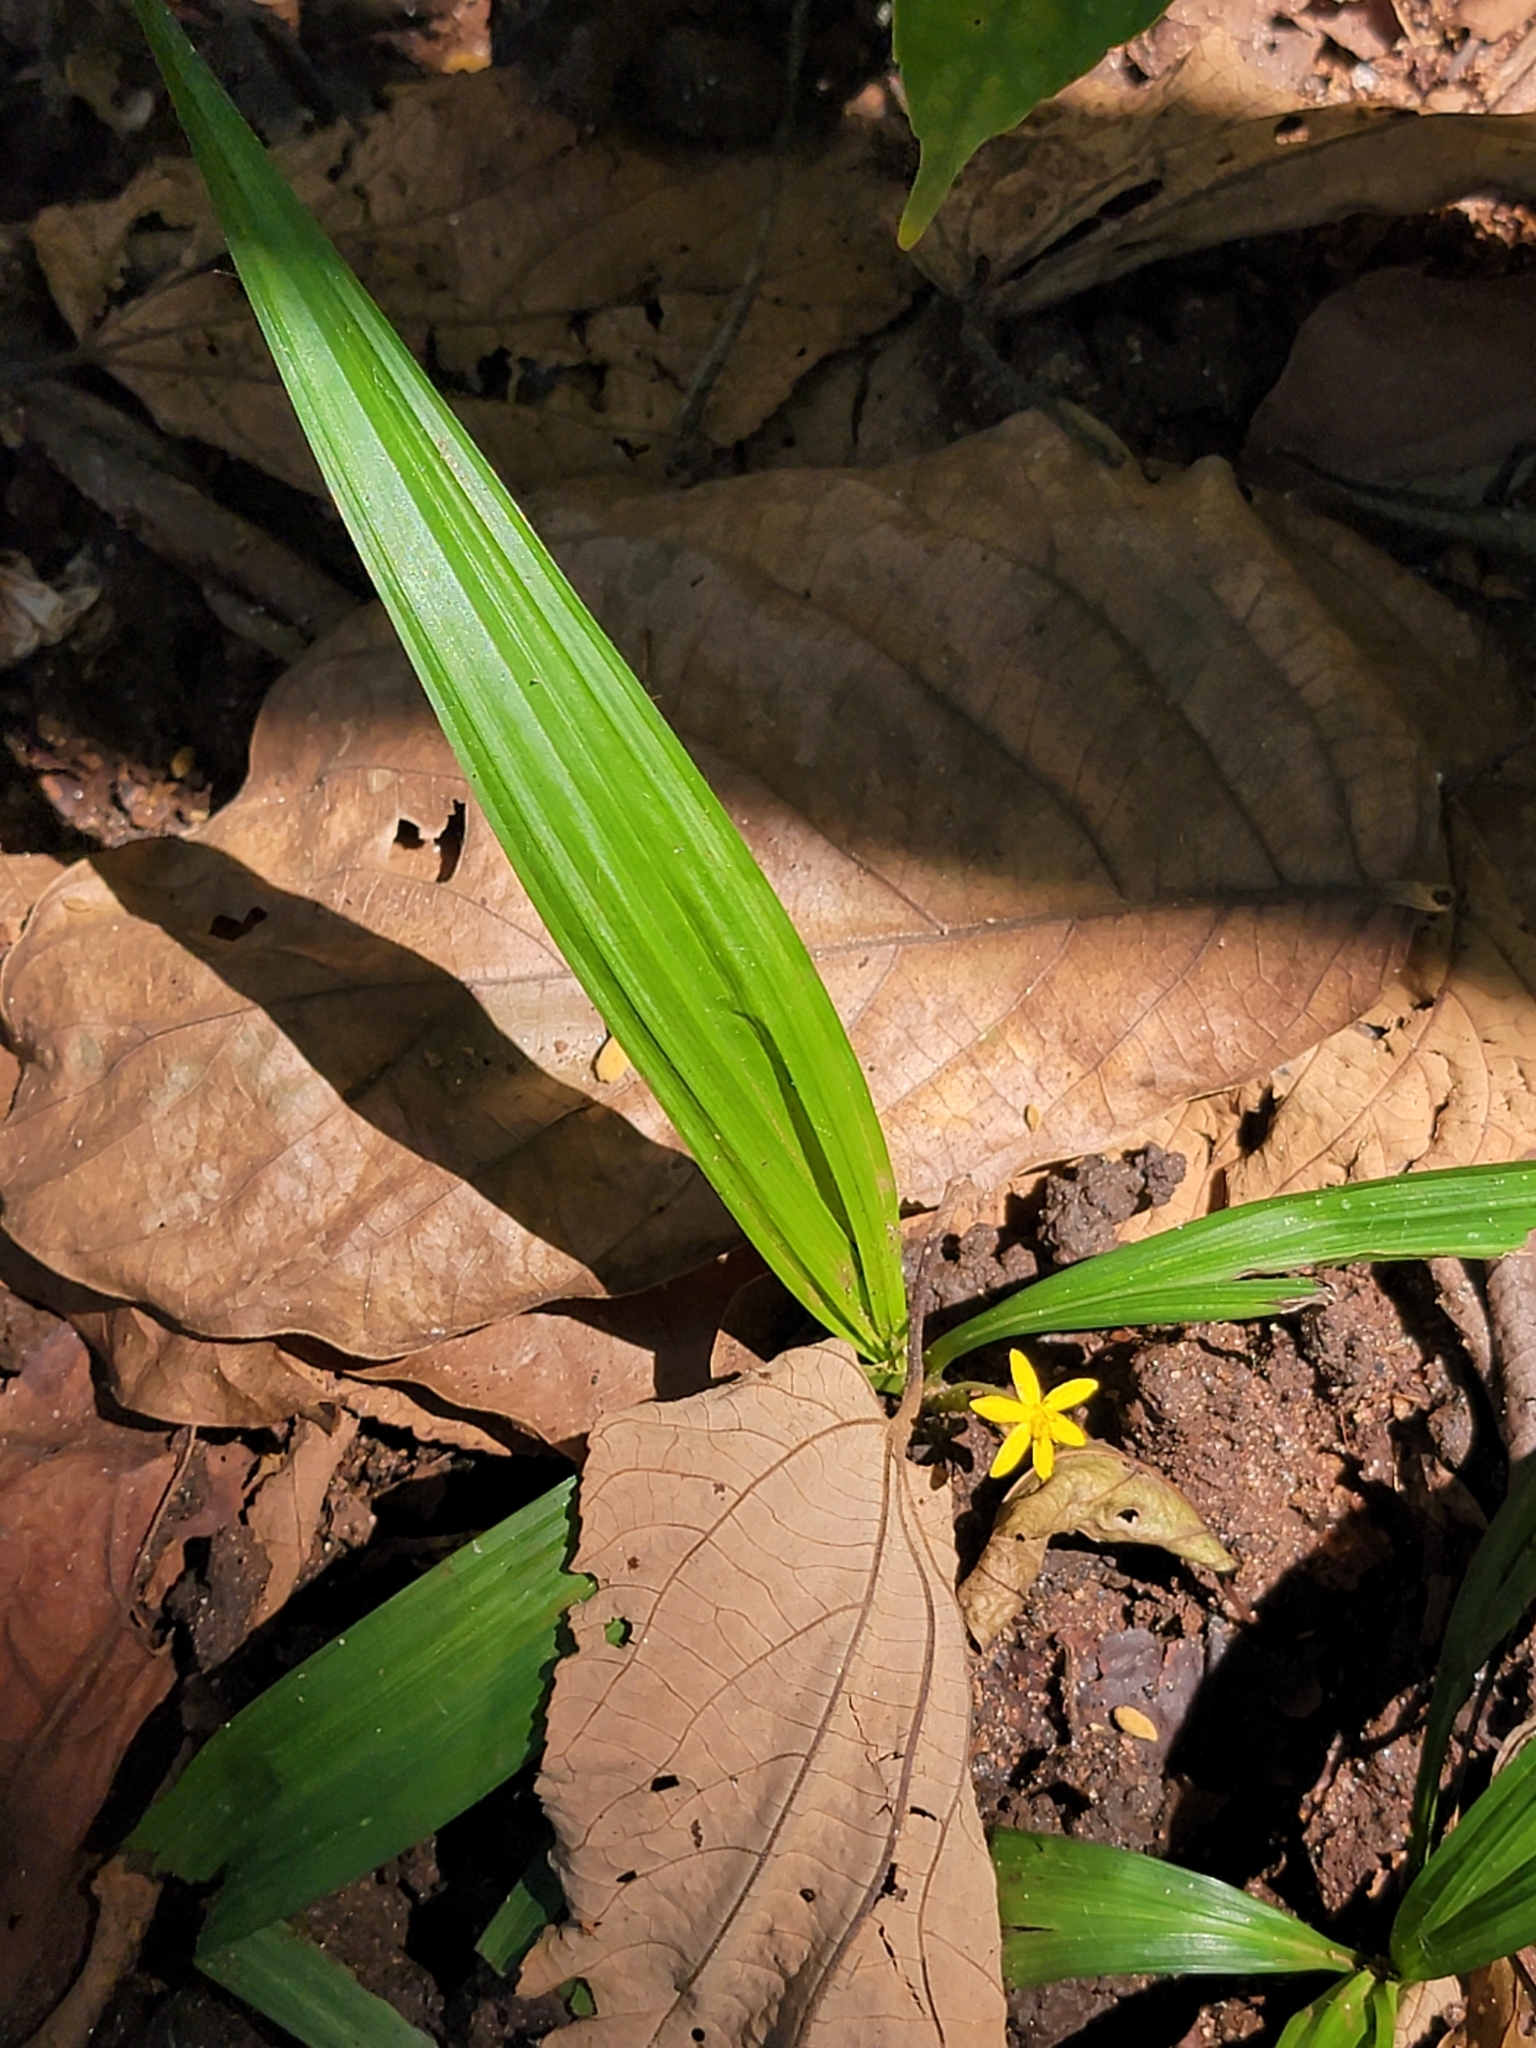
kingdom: Plantae
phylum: Tracheophyta
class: Liliopsida
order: Asparagales
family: Hypoxidaceae
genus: Curculigo
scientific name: Curculigo orchioides
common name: Golden eye-grass
